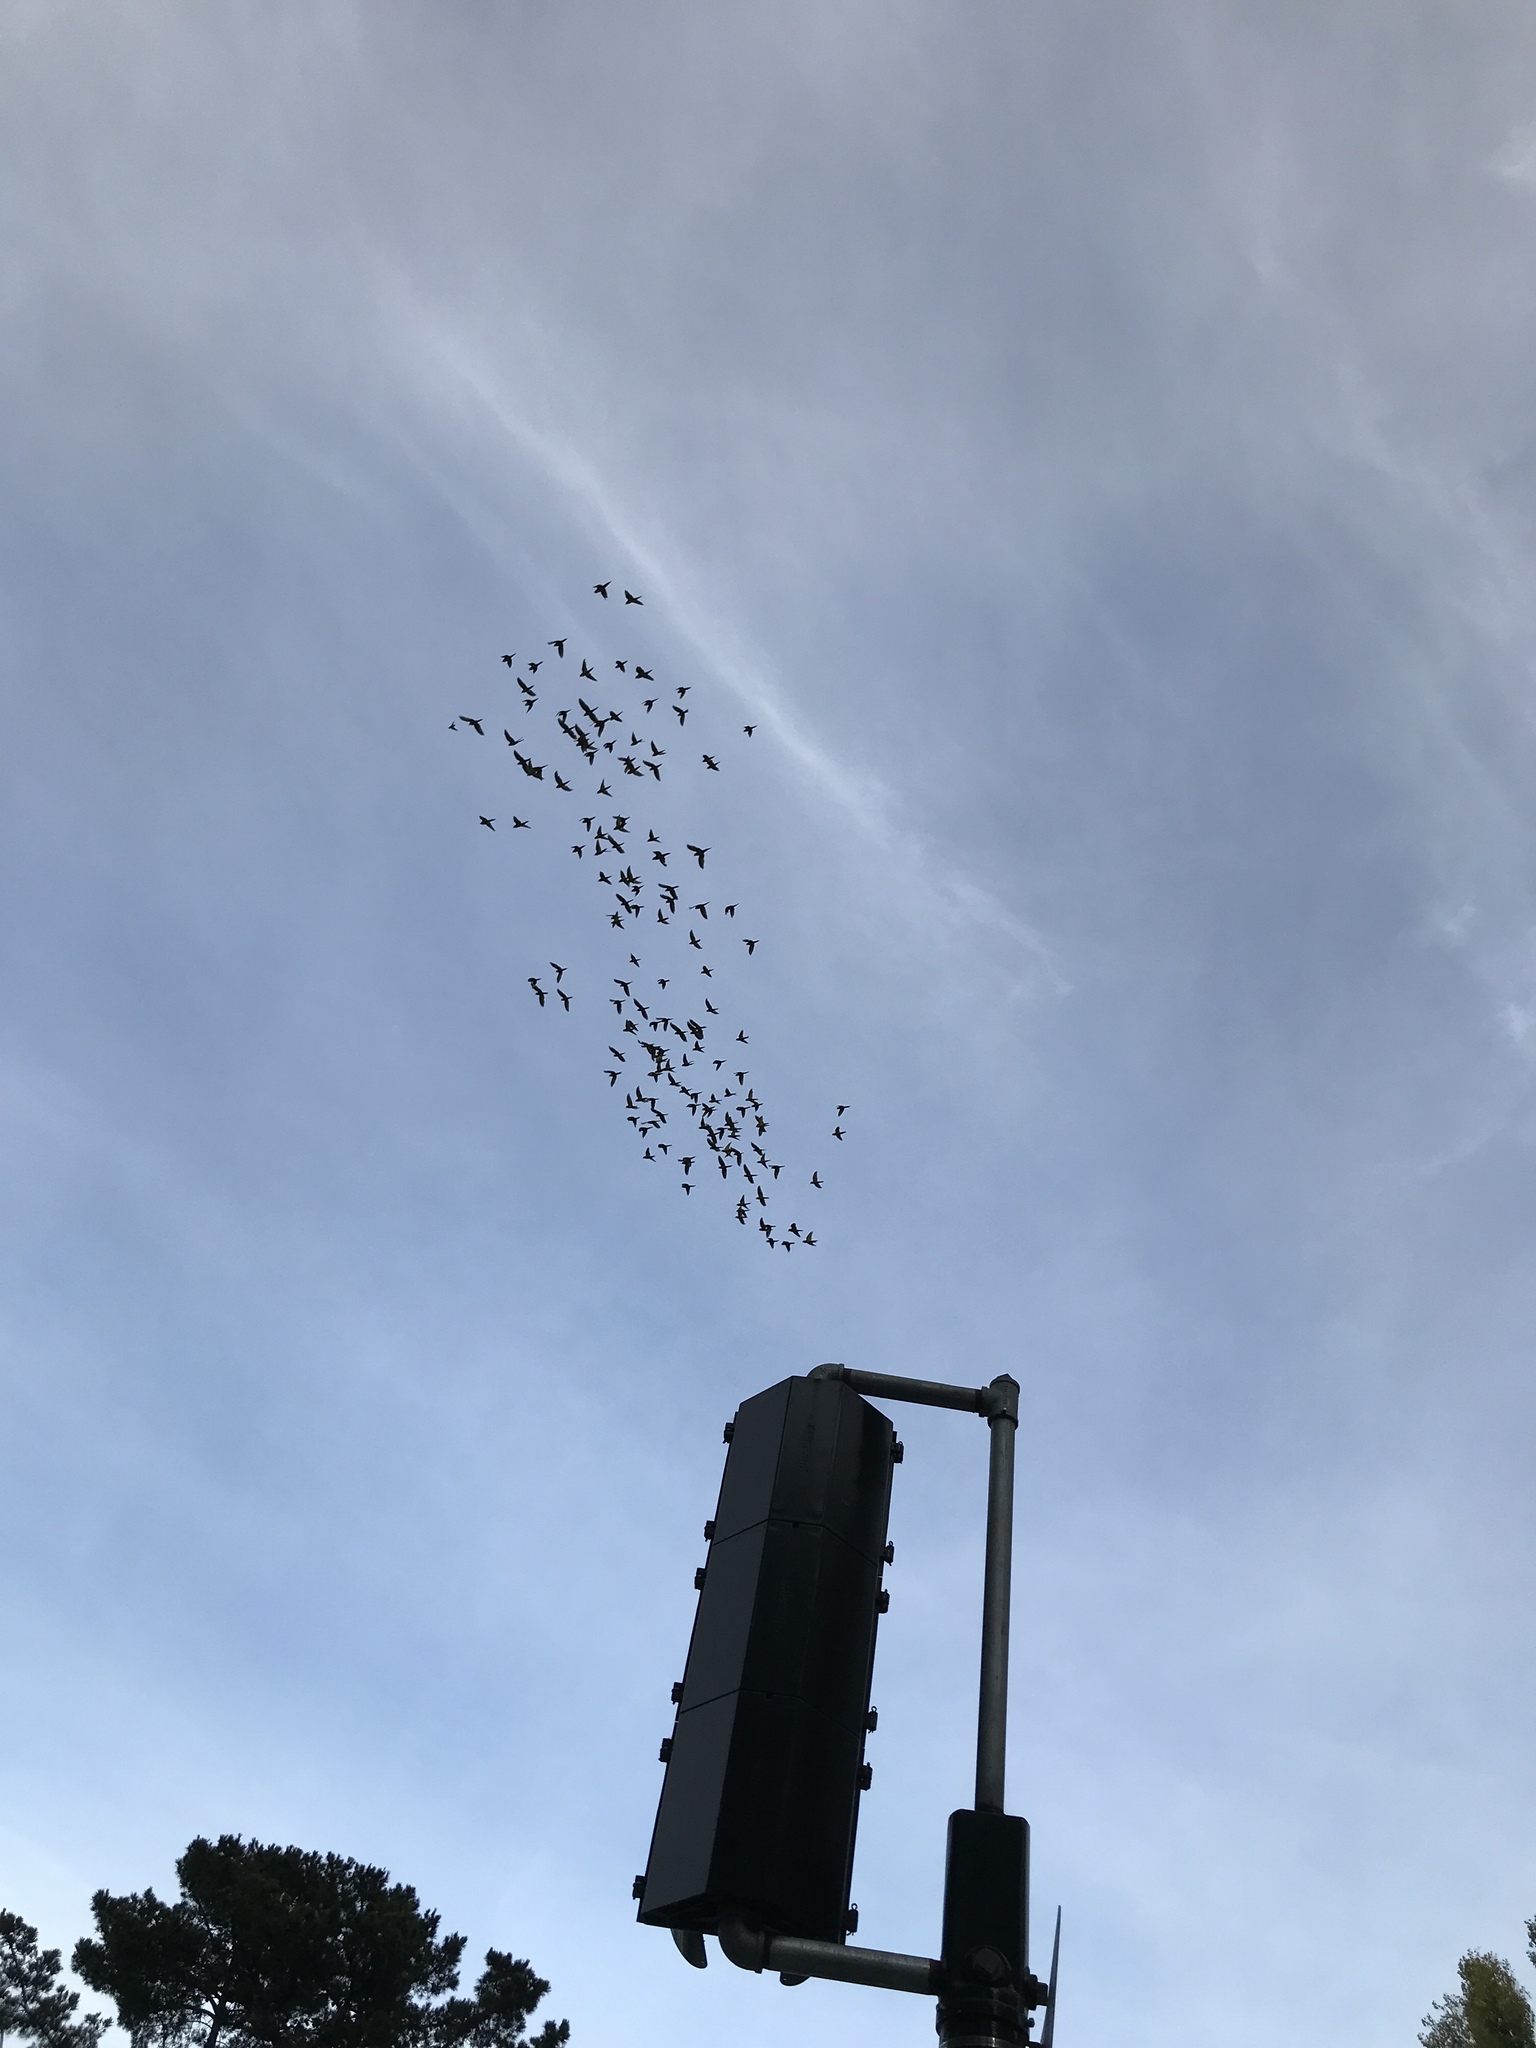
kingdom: Animalia
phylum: Chordata
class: Aves
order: Psittaciformes
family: Psittacidae
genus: Aratinga
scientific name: Aratinga erythrogenys
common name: Red-masked parakeet
